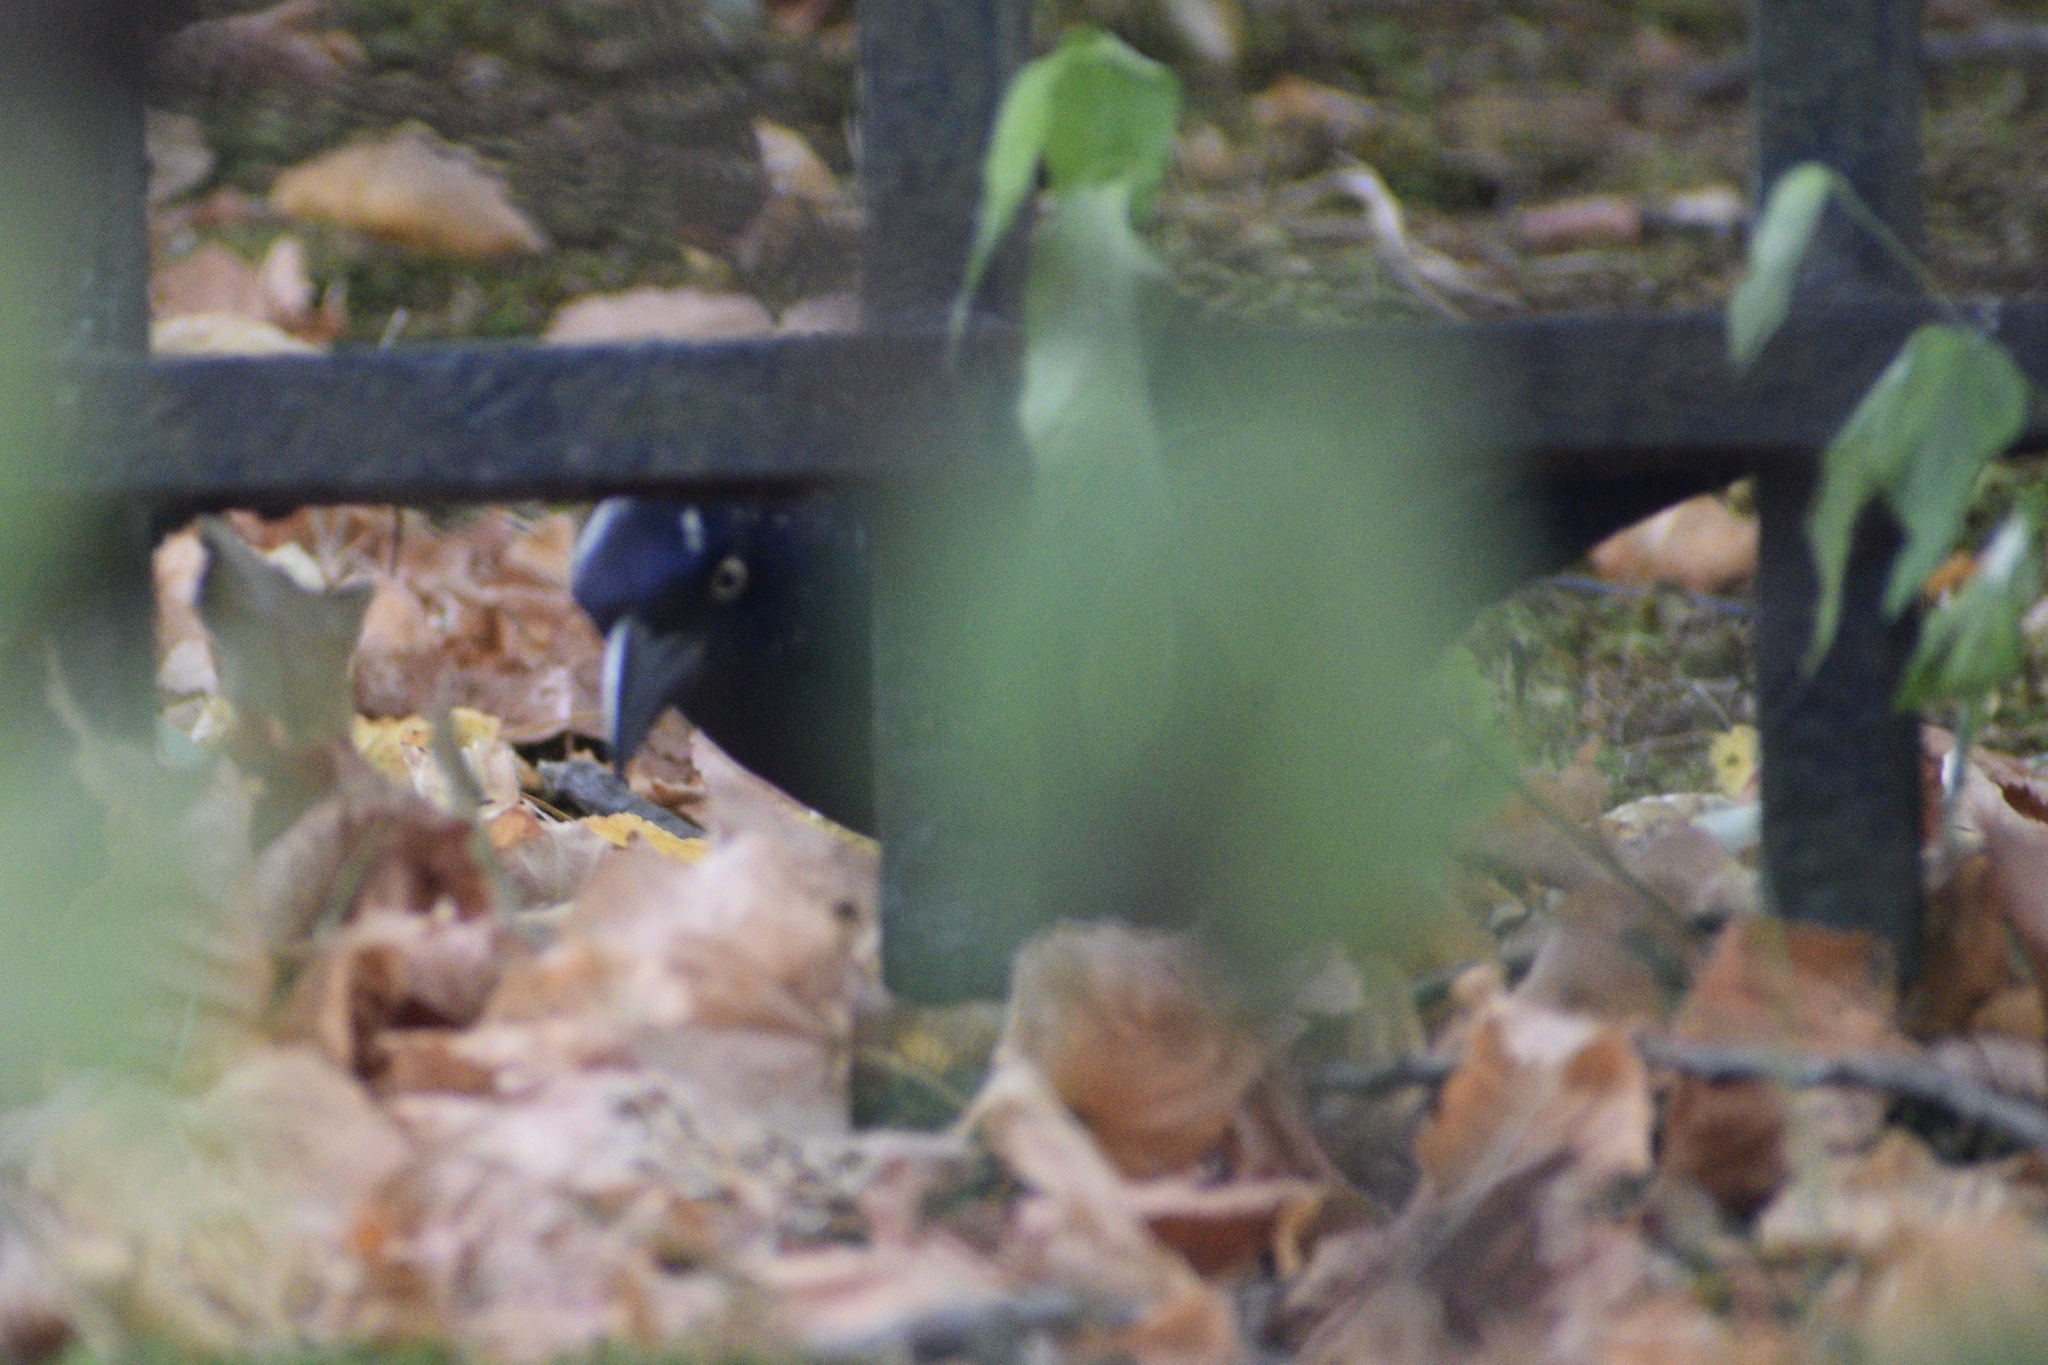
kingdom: Animalia
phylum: Chordata
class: Aves
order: Passeriformes
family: Icteridae
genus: Quiscalus
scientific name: Quiscalus quiscula
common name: Common grackle
